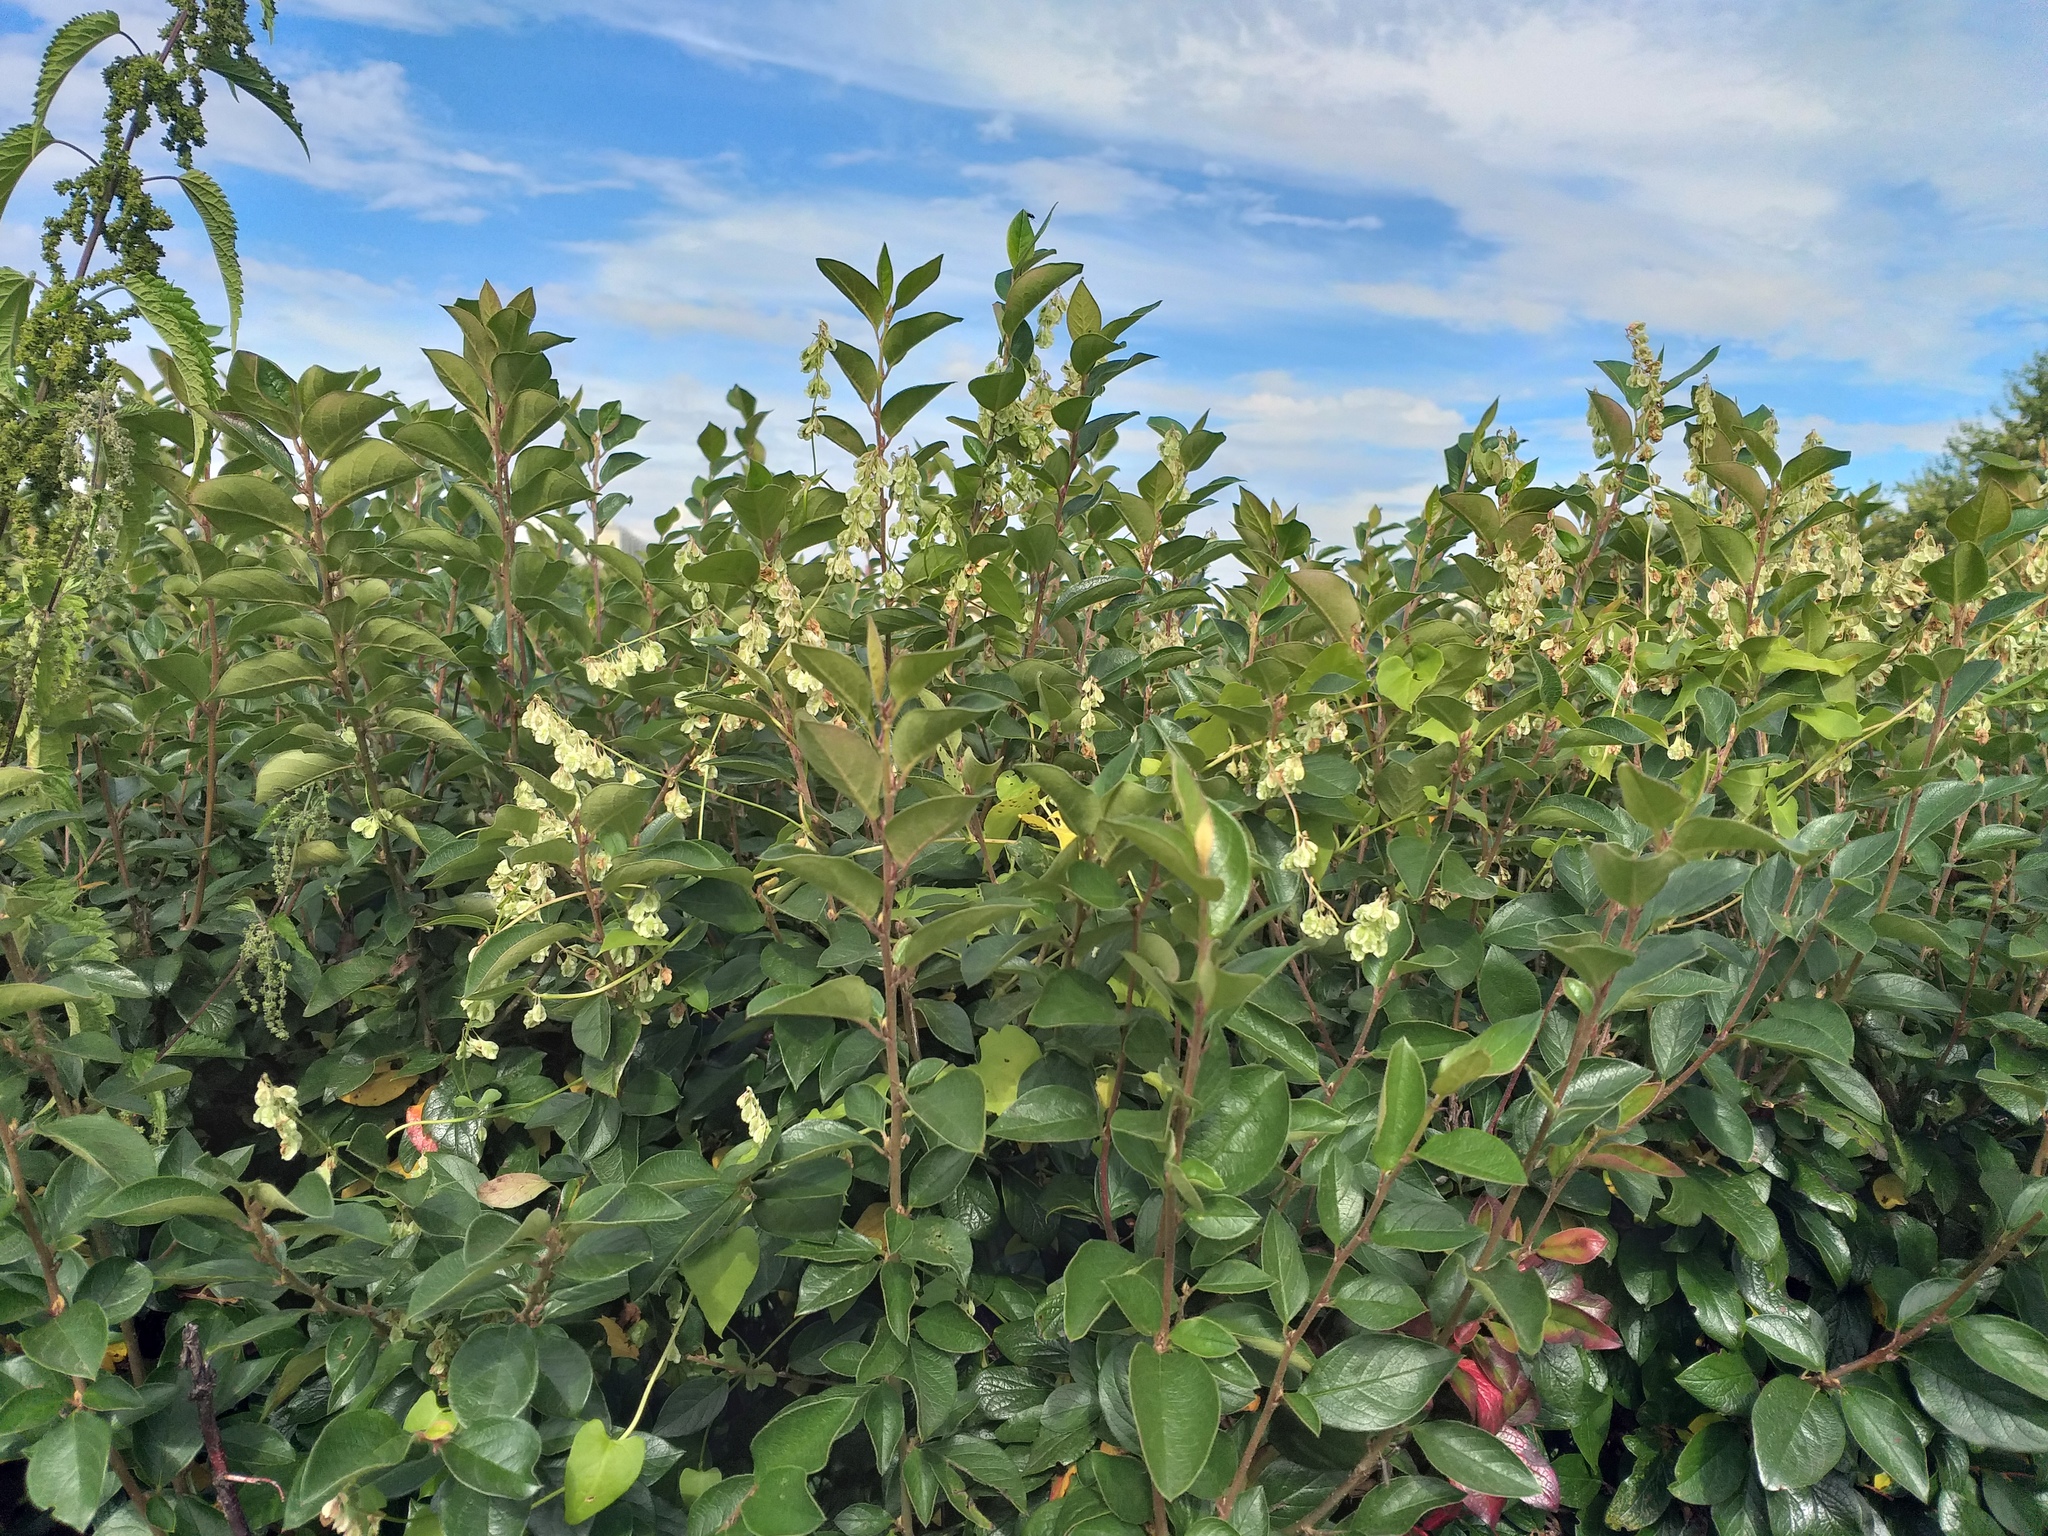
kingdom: Plantae
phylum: Tracheophyta
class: Magnoliopsida
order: Caryophyllales
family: Polygonaceae
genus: Fallopia
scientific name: Fallopia dumetorum
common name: Copse-bindweed
